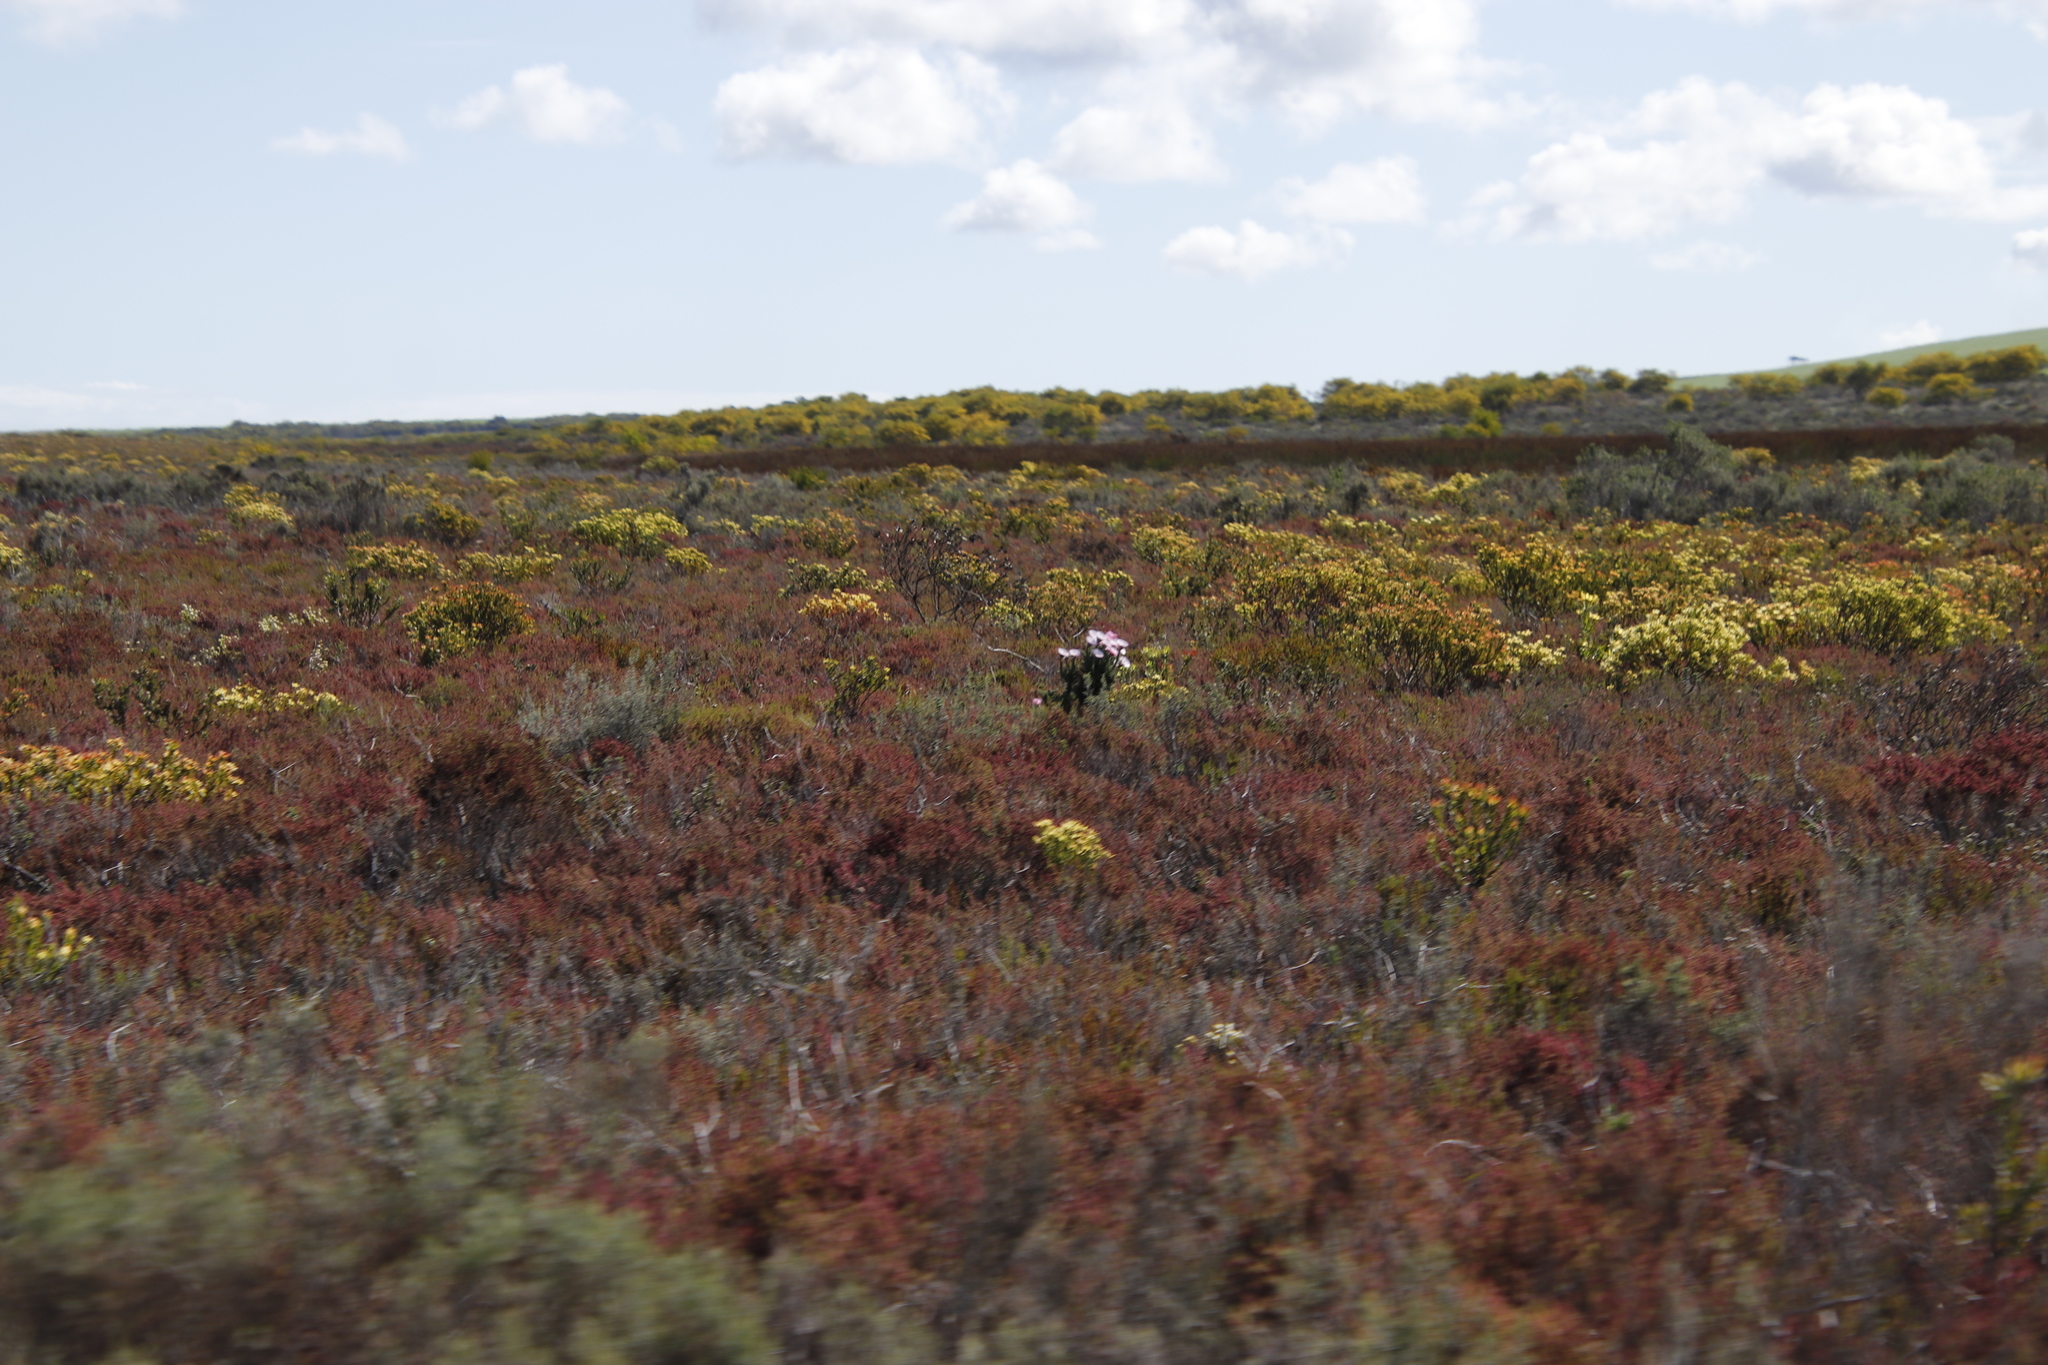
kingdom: Plantae
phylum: Tracheophyta
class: Magnoliopsida
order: Asterales
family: Asteraceae
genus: Phaenocoma
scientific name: Phaenocoma prolifera
